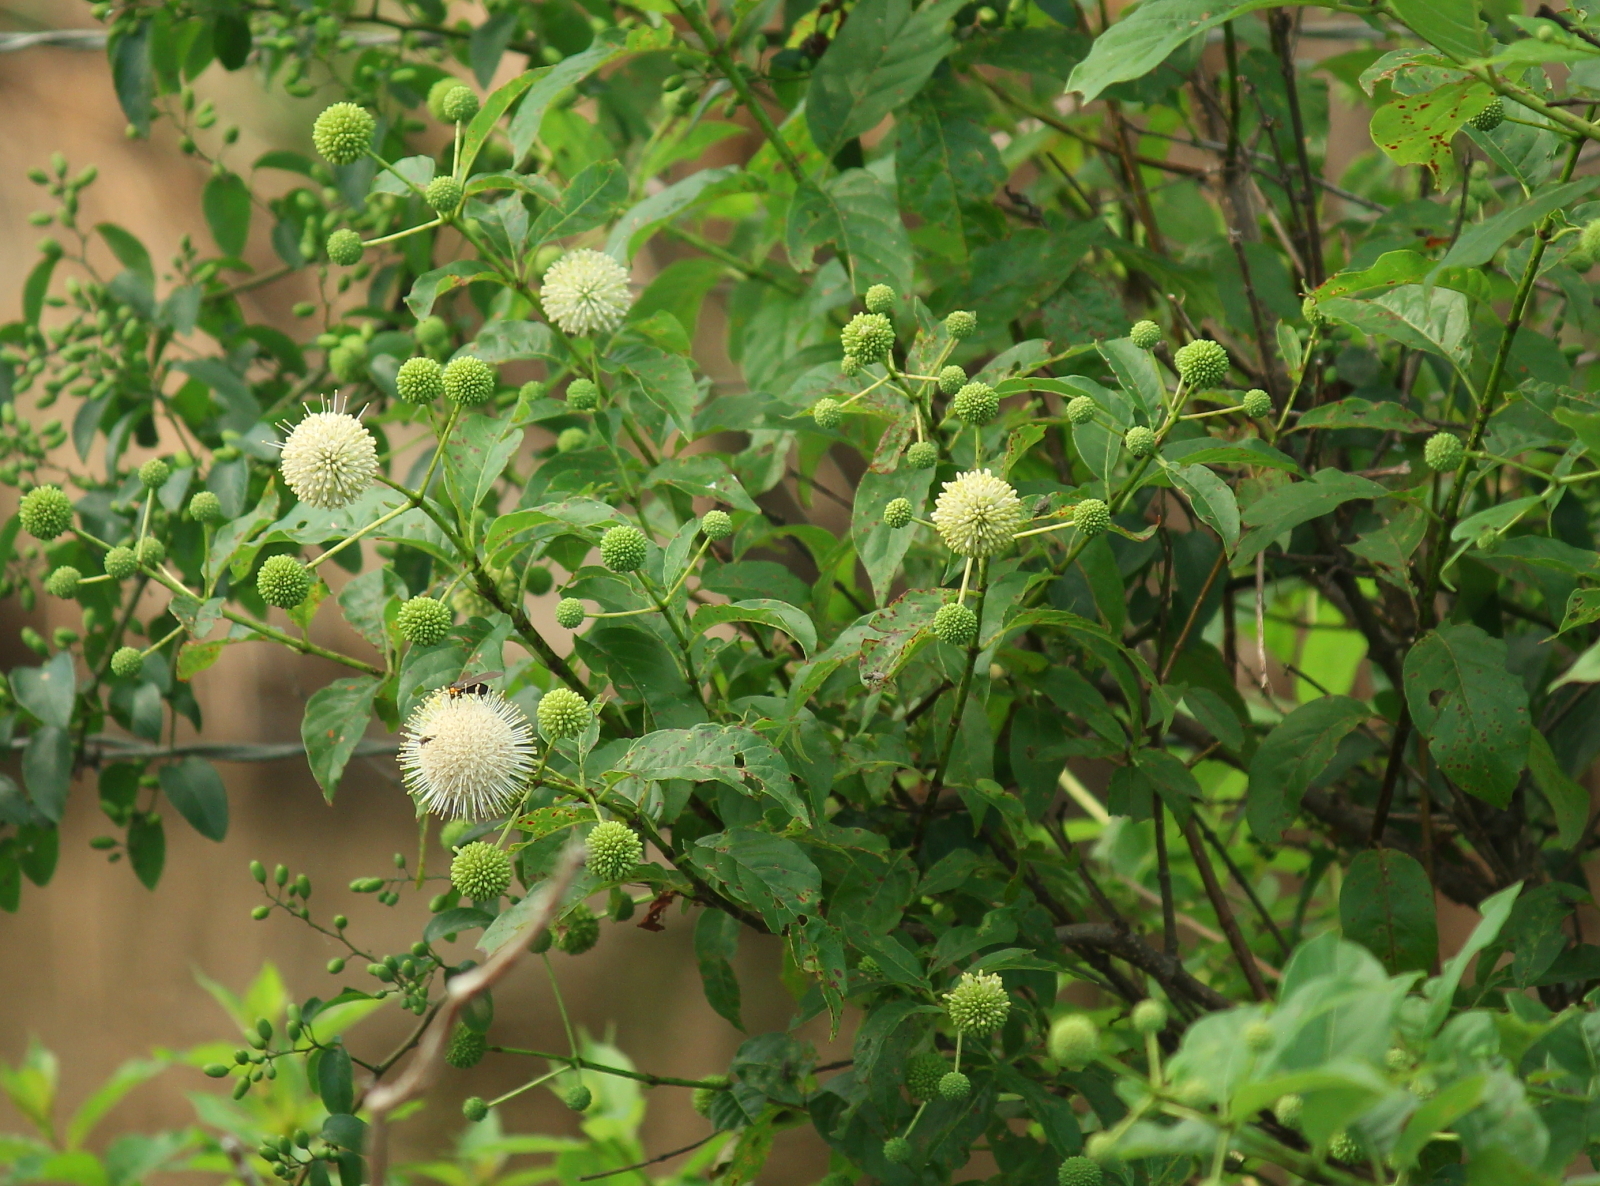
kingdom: Plantae
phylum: Tracheophyta
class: Magnoliopsida
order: Gentianales
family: Rubiaceae
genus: Cephalanthus
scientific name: Cephalanthus occidentalis
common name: Button-willow
